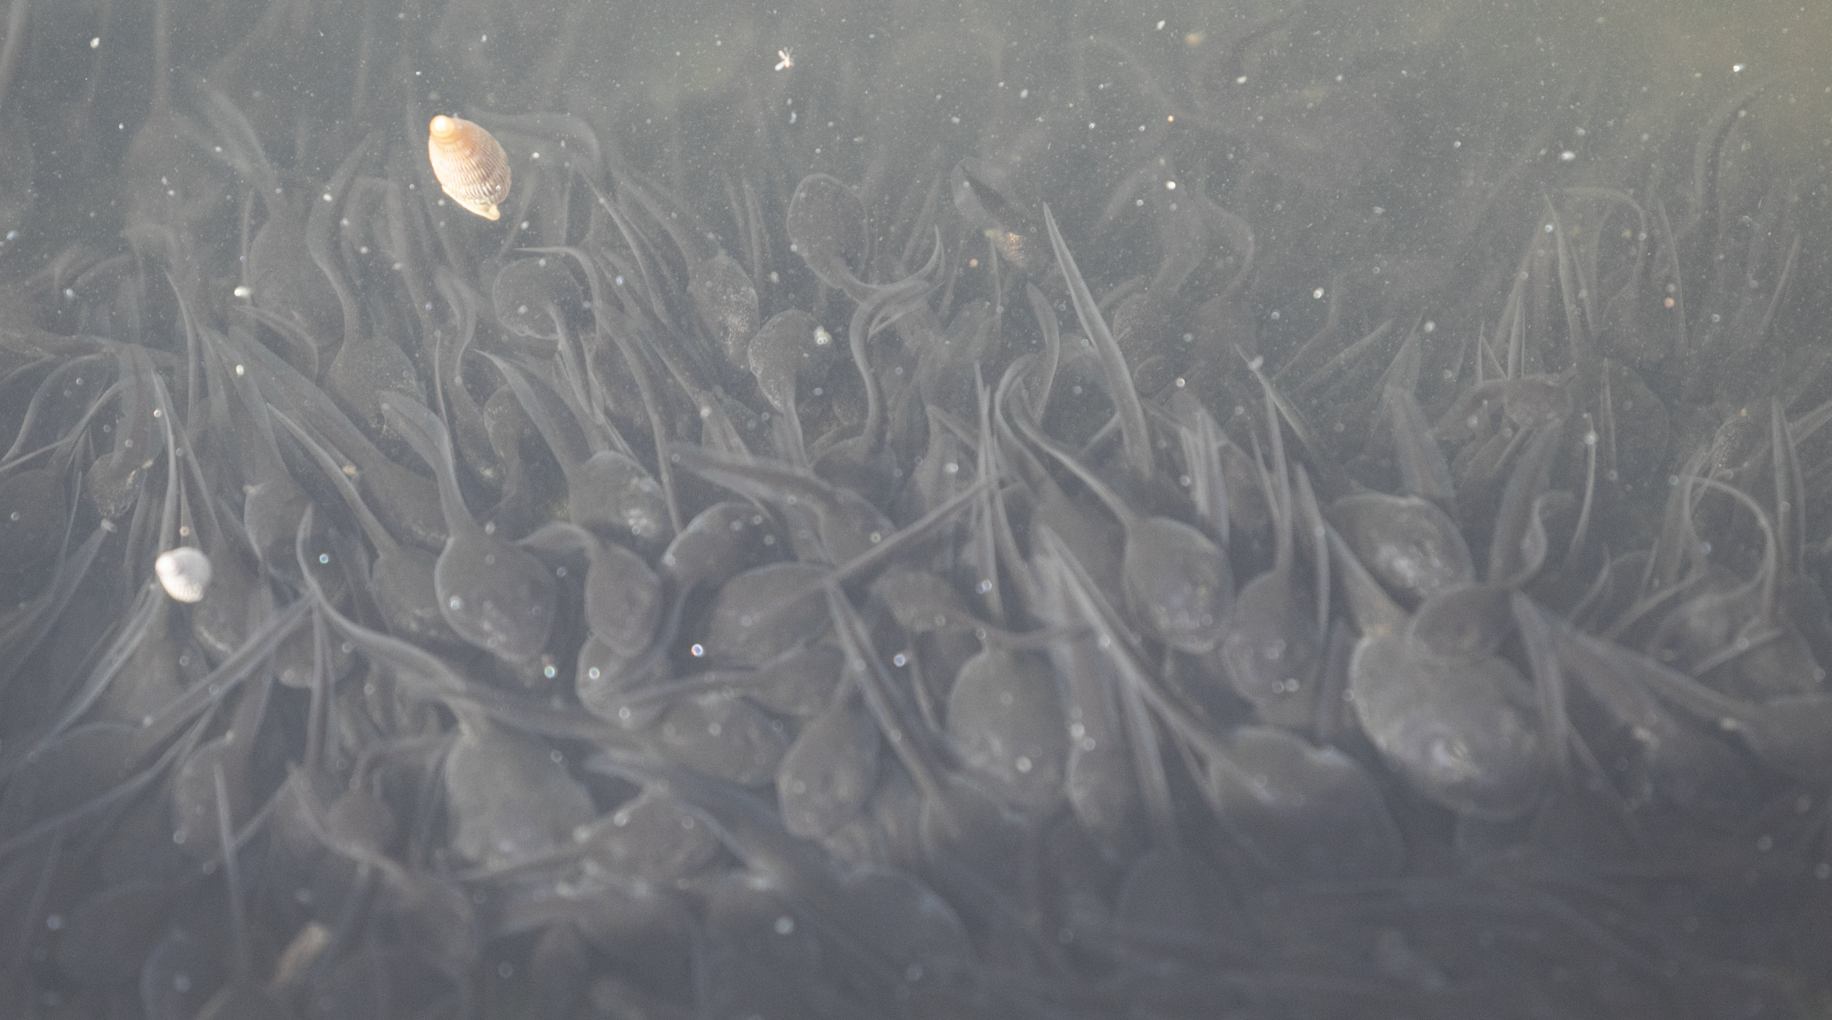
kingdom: Animalia
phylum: Chordata
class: Amphibia
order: Anura
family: Bufonidae
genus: Bufotes
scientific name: Bufotes boulengeri
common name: African green toad
